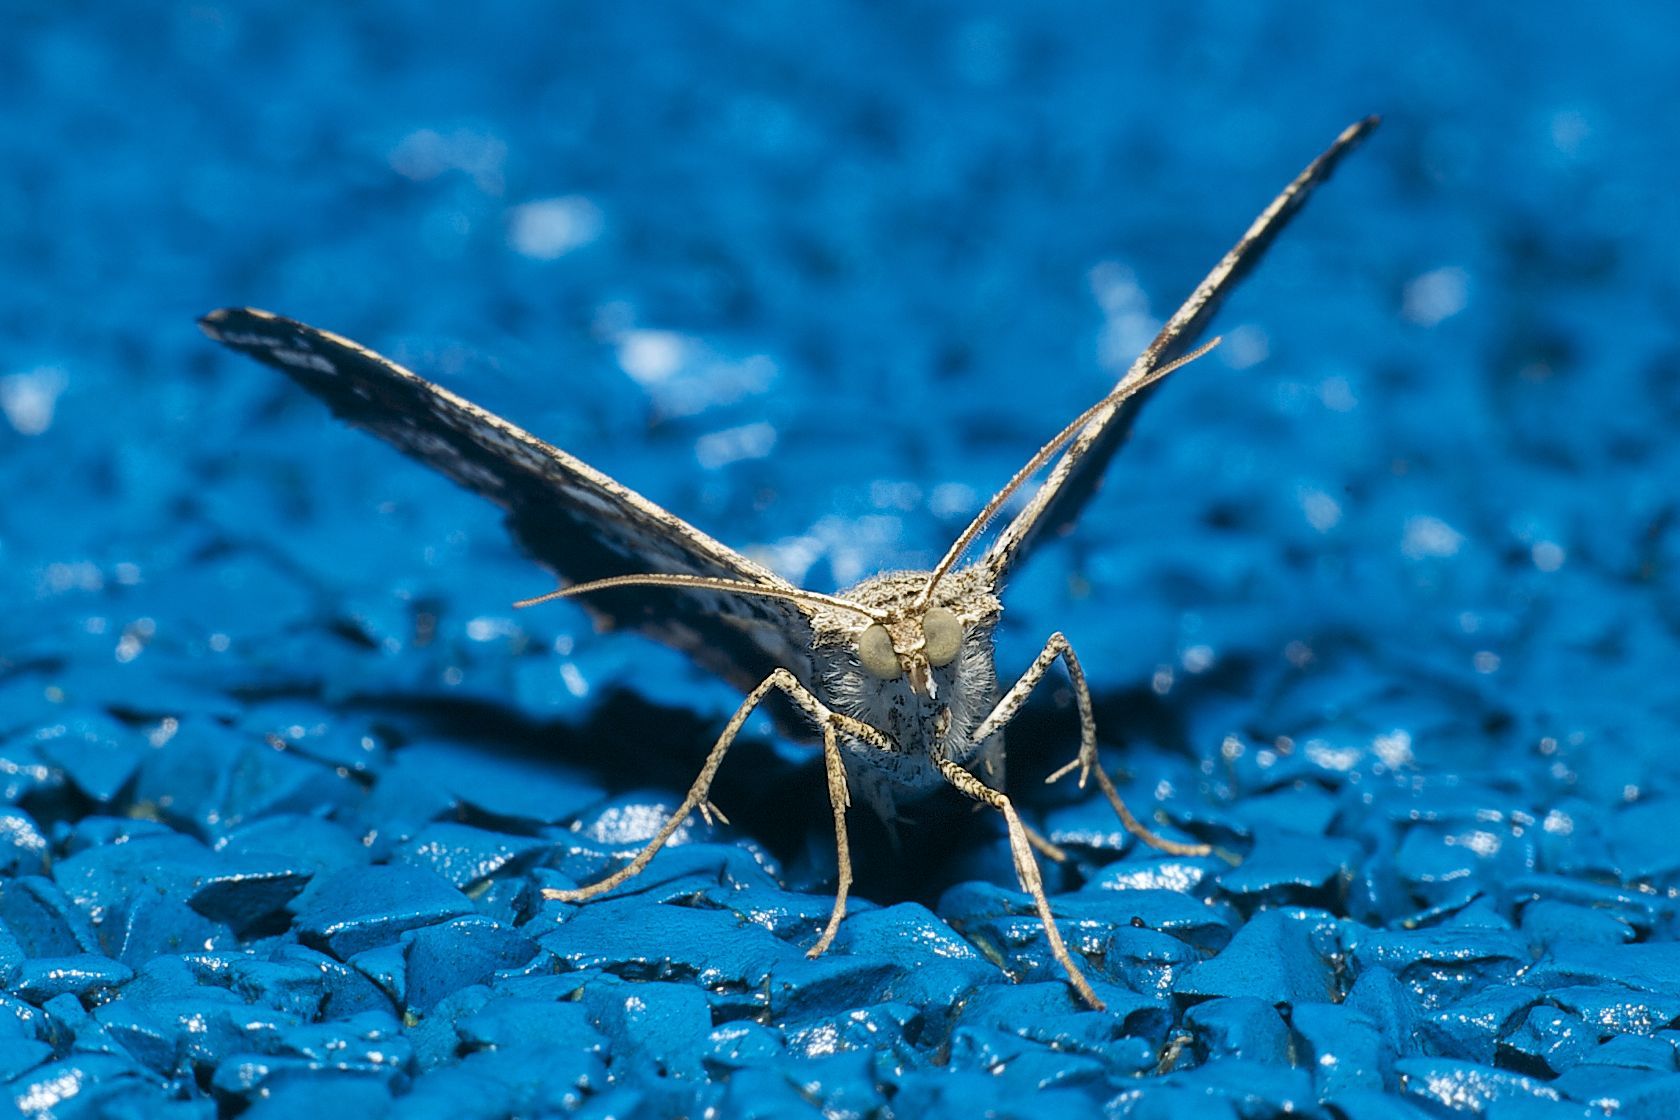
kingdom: Animalia
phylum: Arthropoda
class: Insecta
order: Lepidoptera
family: Geometridae
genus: Chiasmia
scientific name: Chiasmia emersaria
